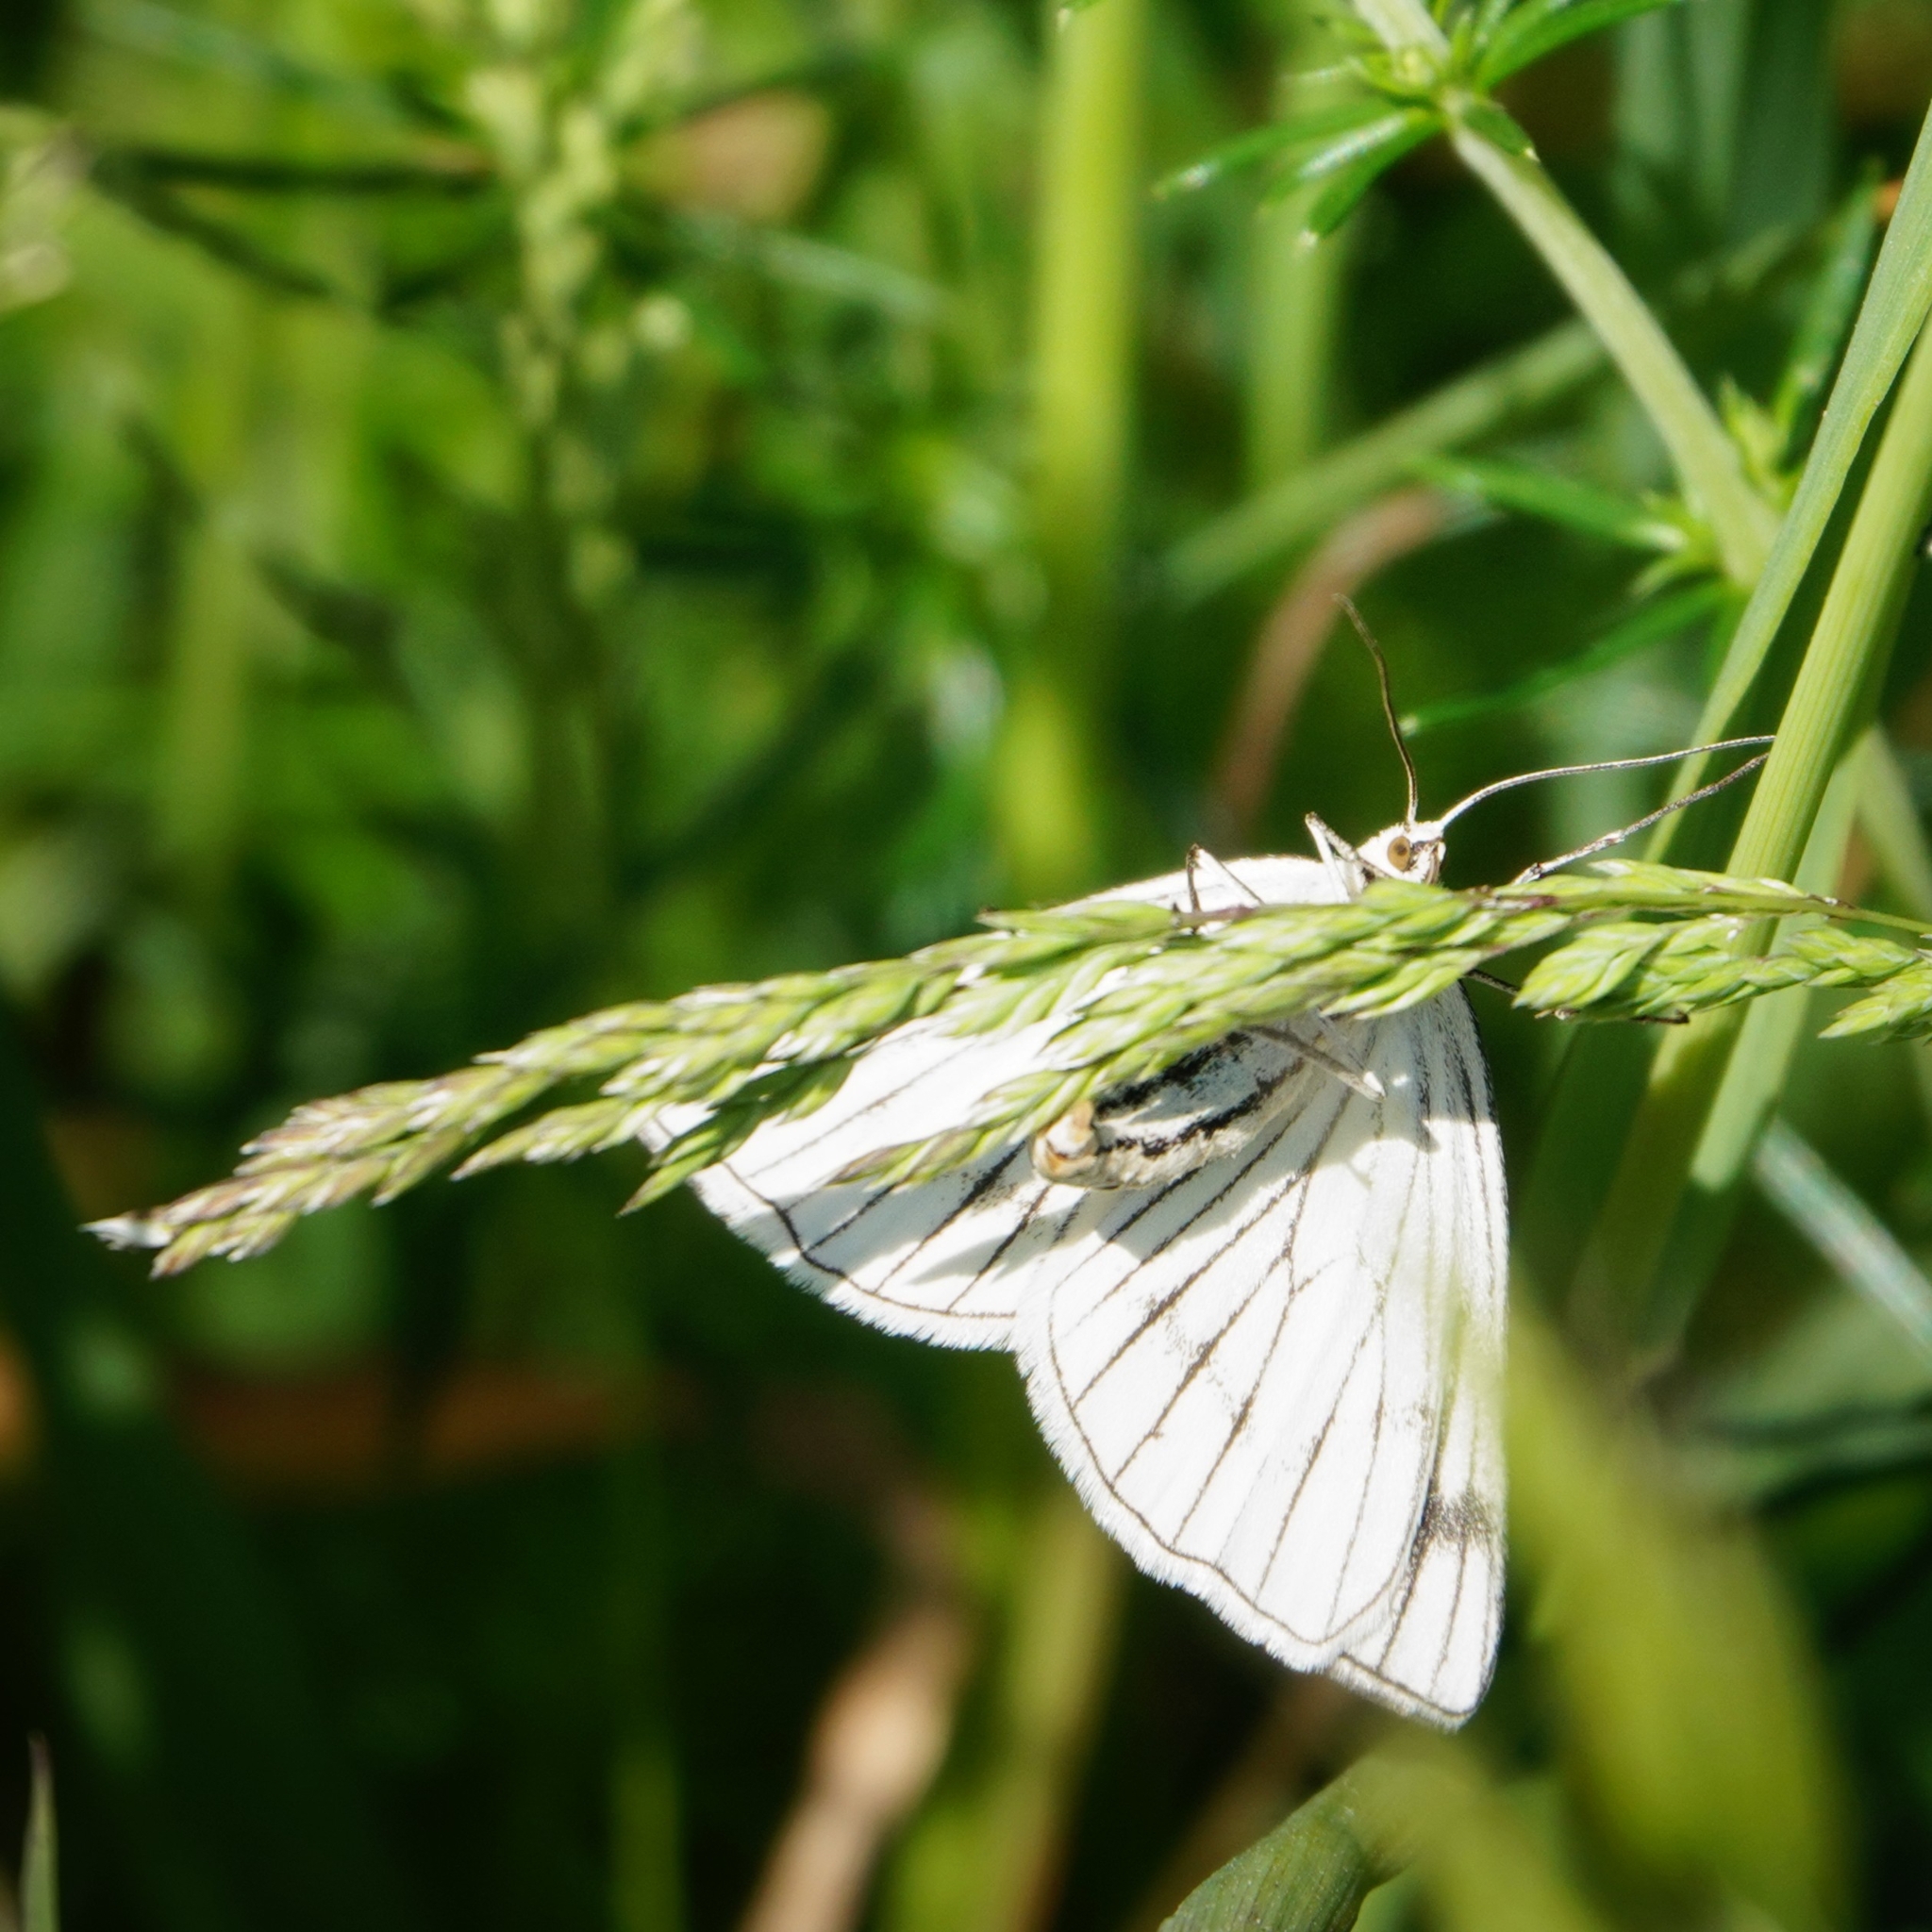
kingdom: Animalia
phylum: Arthropoda
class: Insecta
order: Lepidoptera
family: Geometridae
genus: Siona
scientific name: Siona lineata
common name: Black-veined moth
